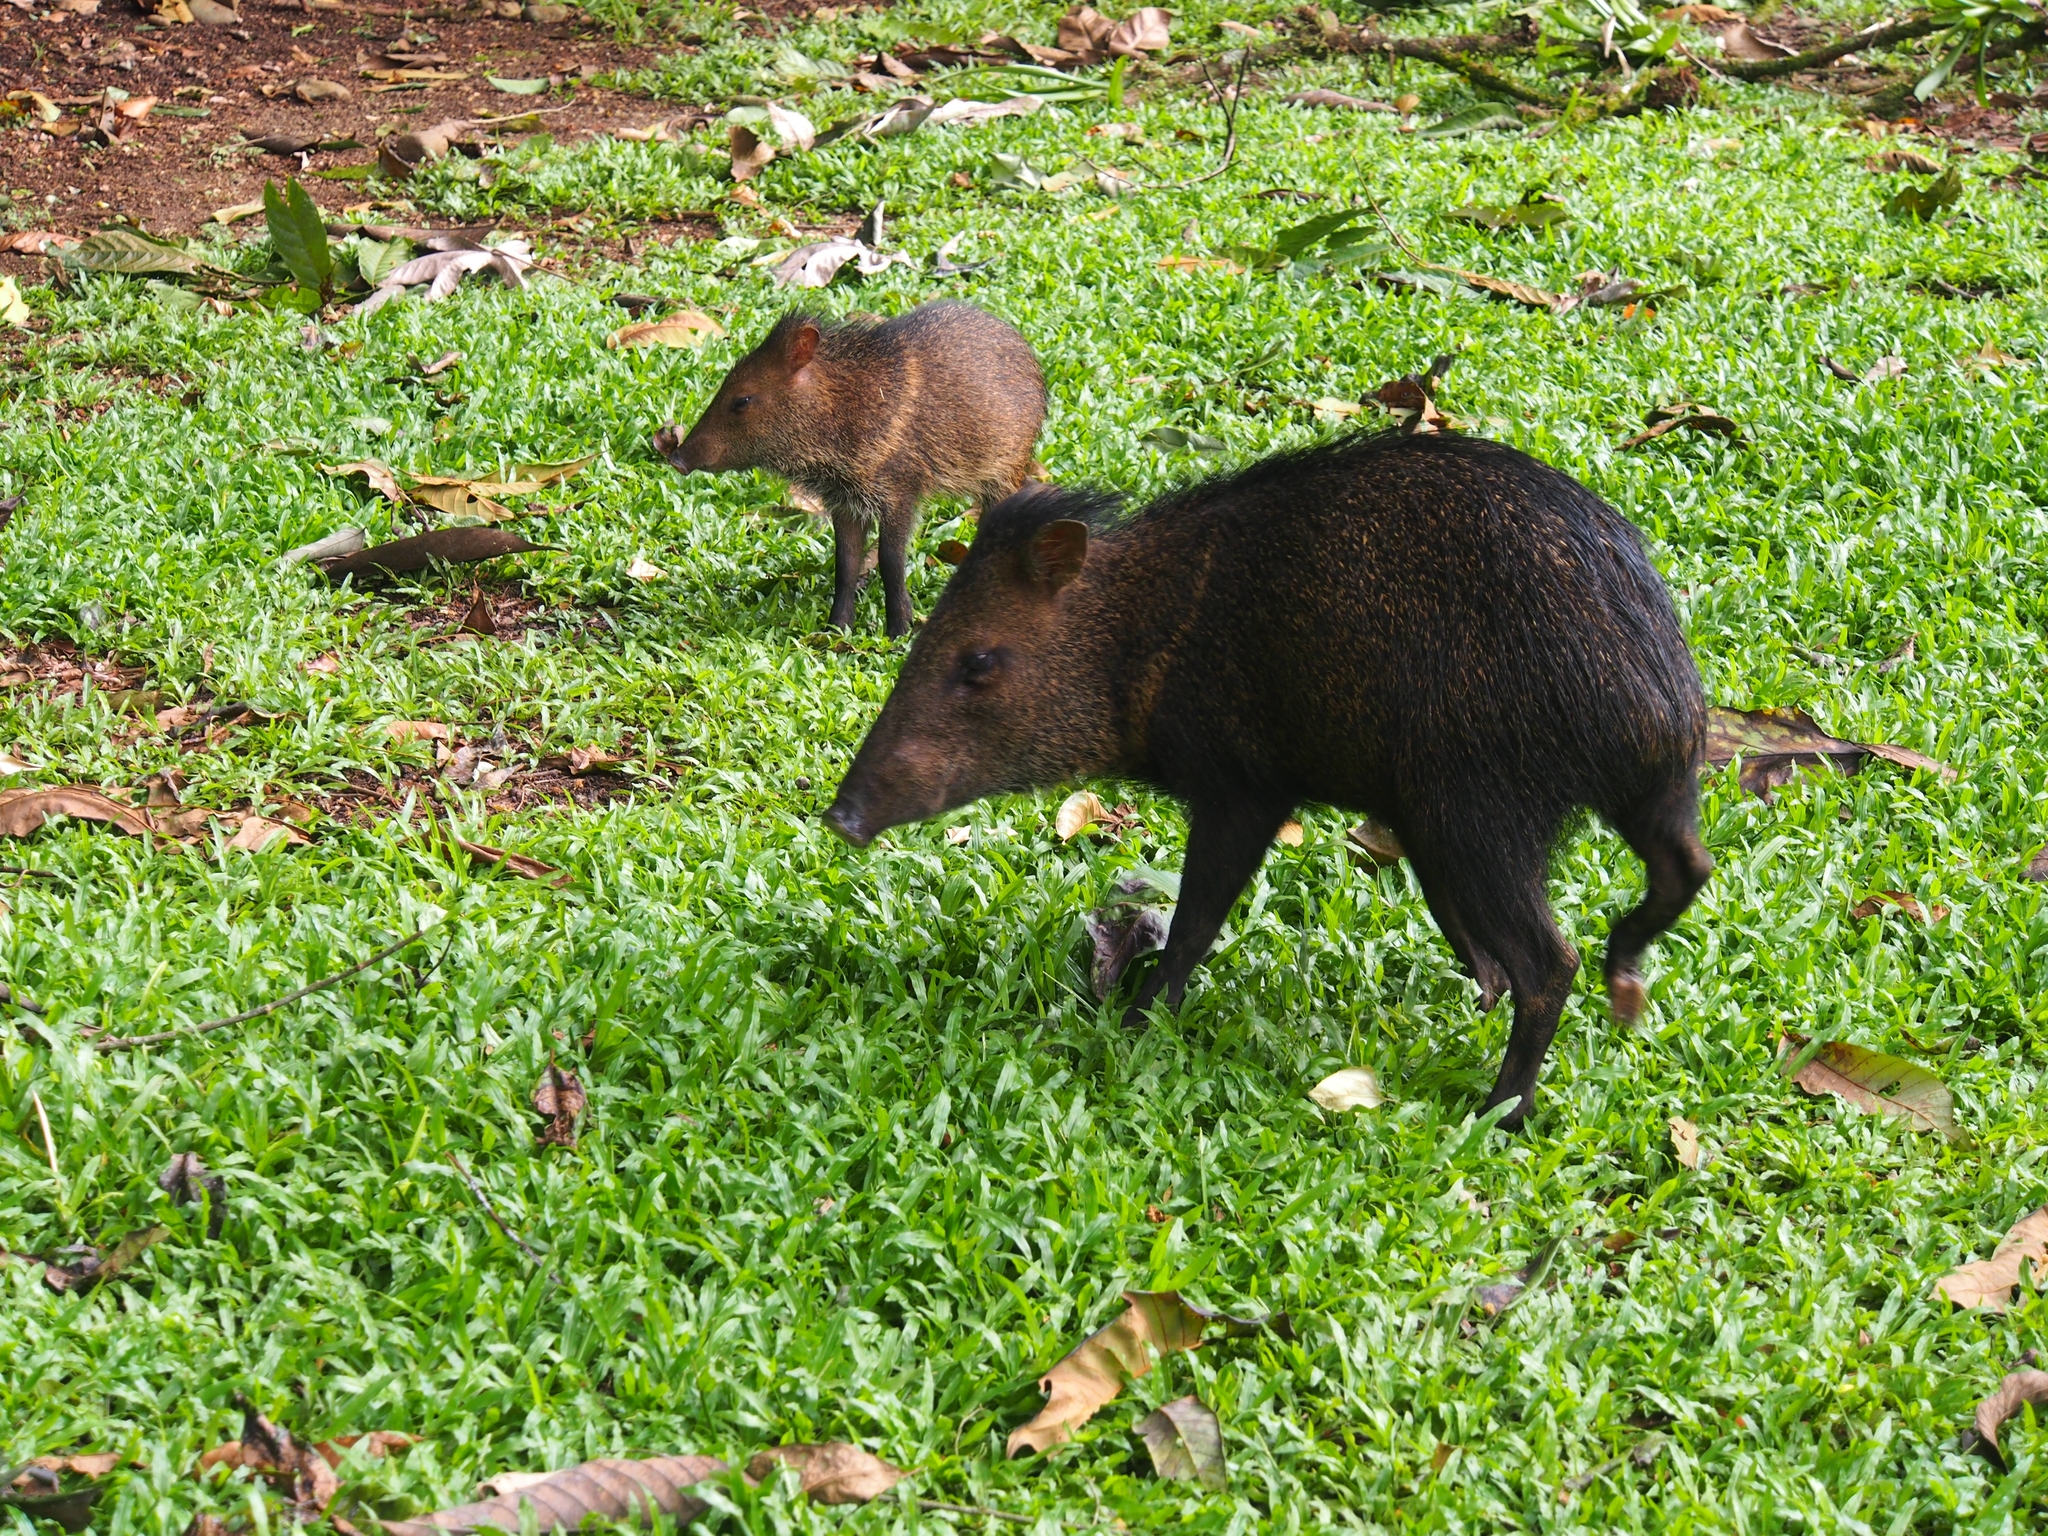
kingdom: Animalia
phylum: Chordata
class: Mammalia
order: Artiodactyla
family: Tayassuidae
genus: Pecari
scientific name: Pecari tajacu
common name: Collared peccary
